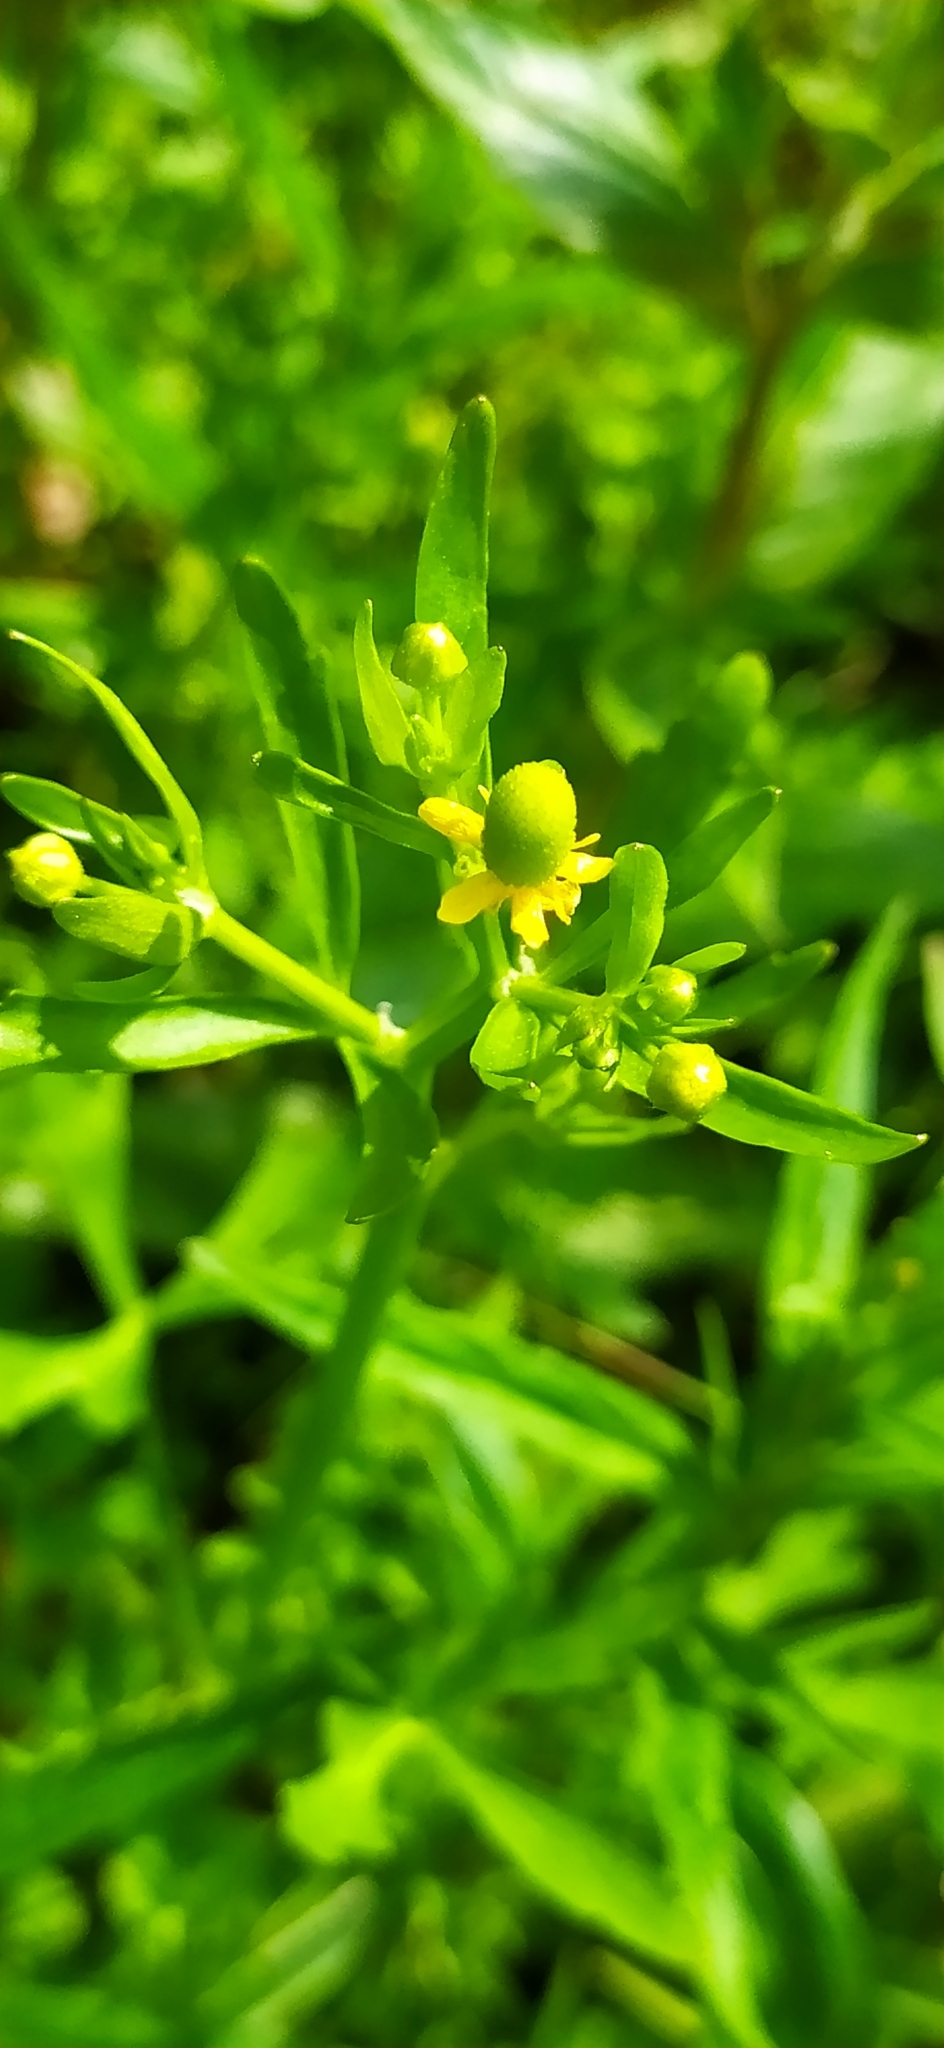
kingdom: Plantae
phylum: Tracheophyta
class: Magnoliopsida
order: Ranunculales
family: Ranunculaceae
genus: Ranunculus
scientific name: Ranunculus sceleratus
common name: Celery-leaved buttercup
